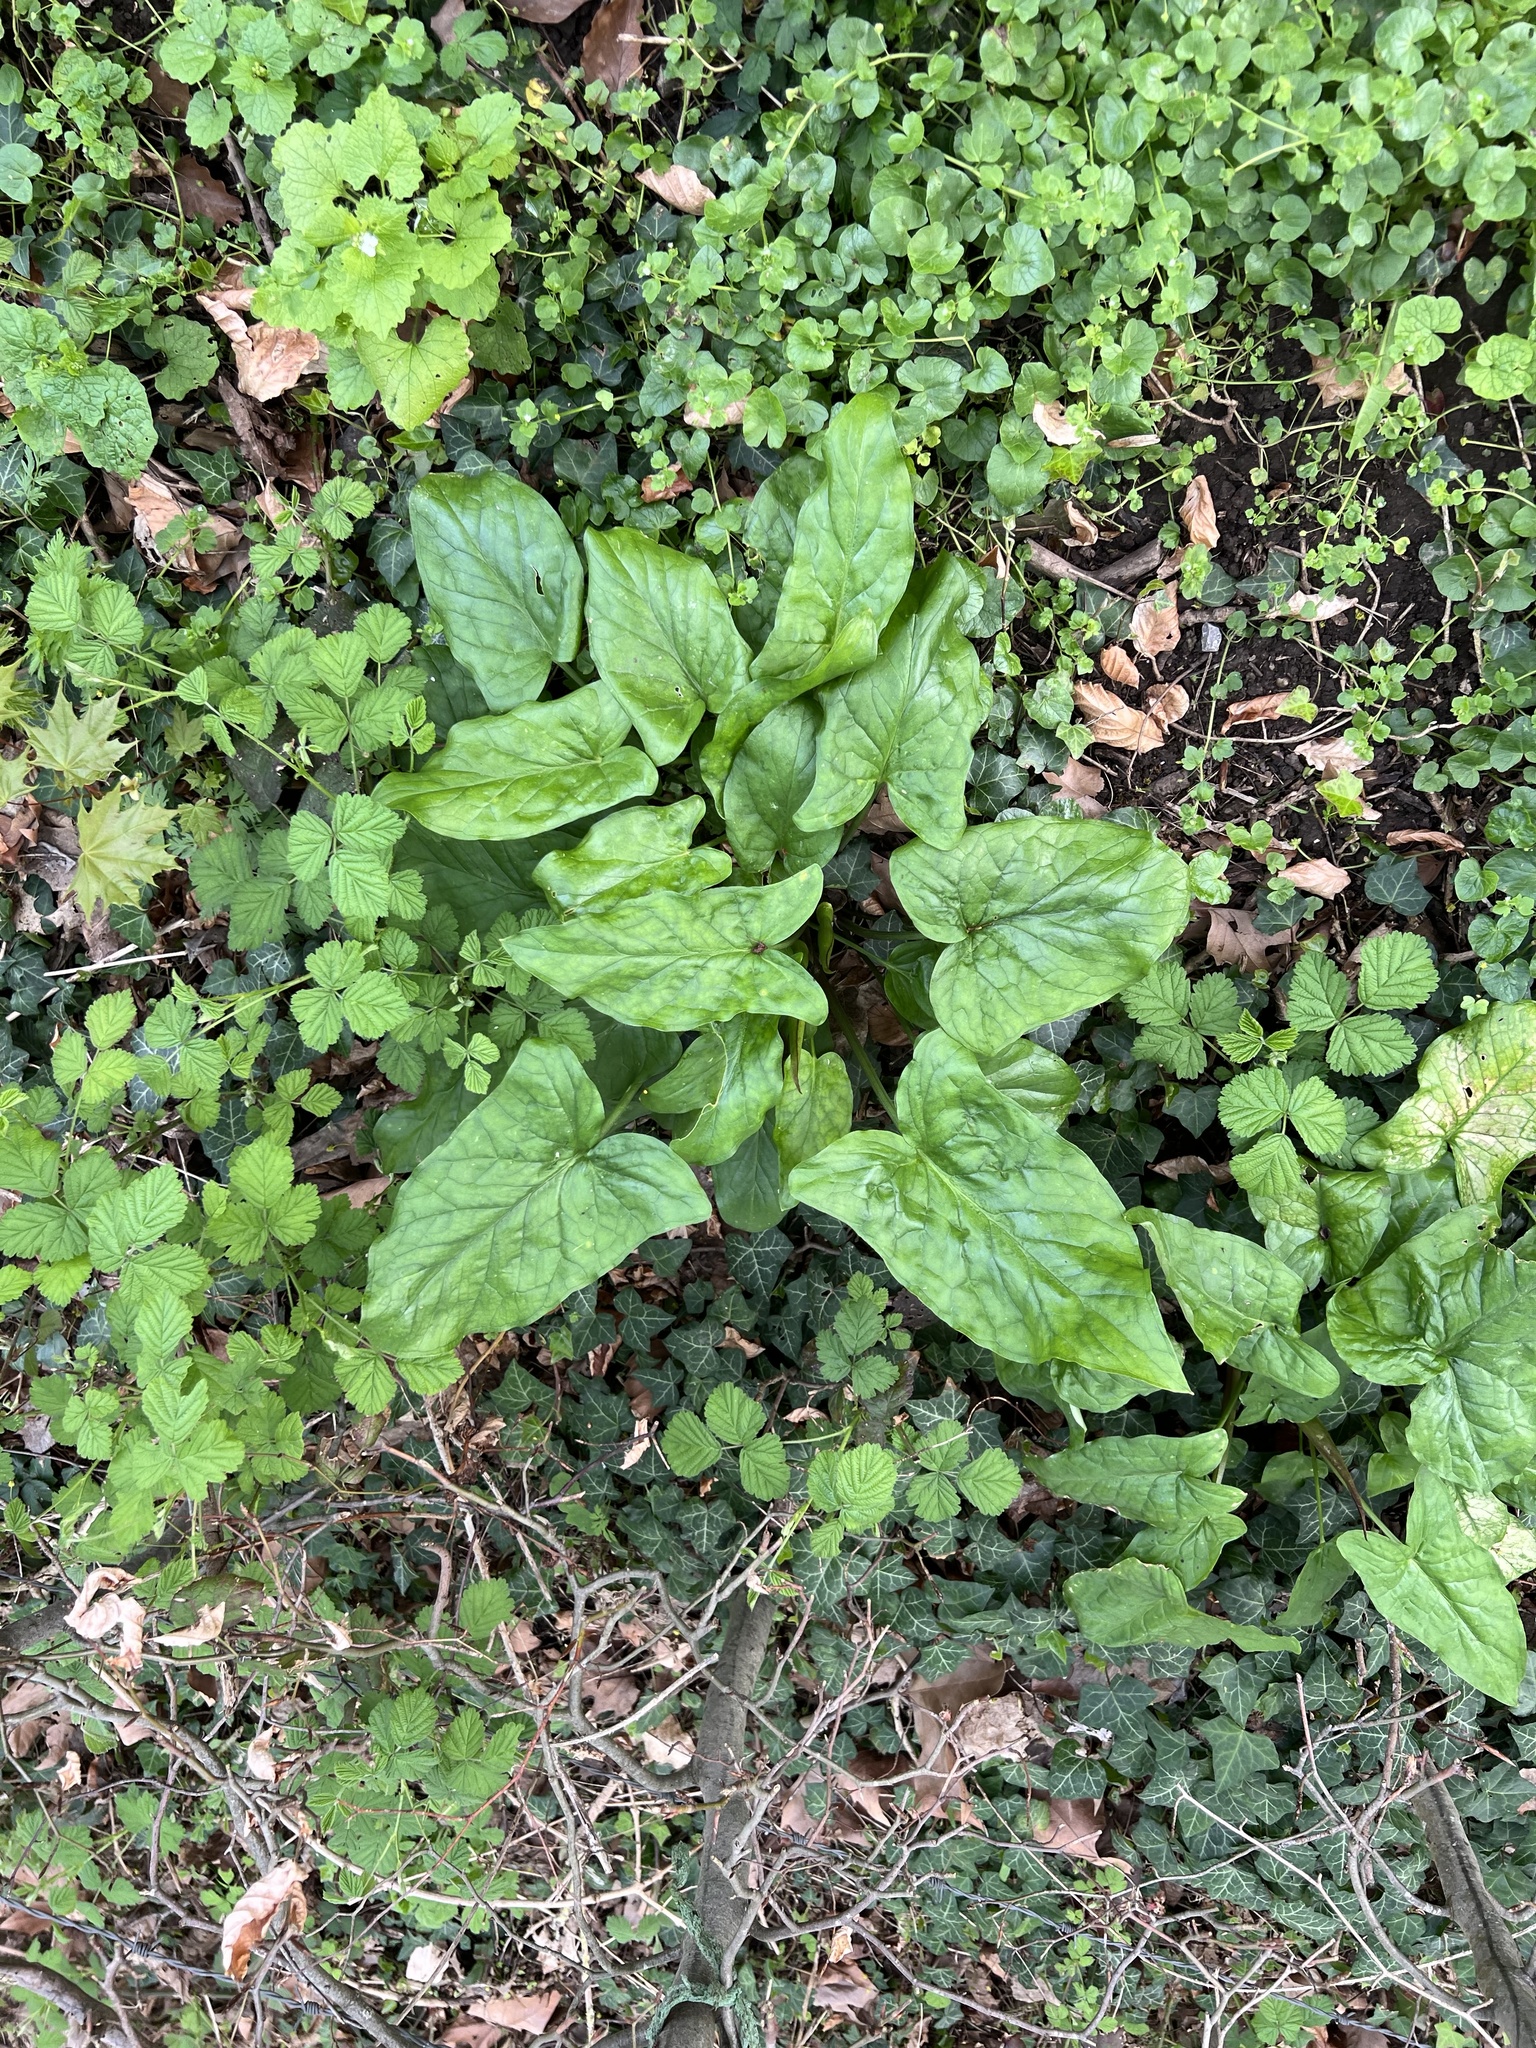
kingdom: Plantae
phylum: Tracheophyta
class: Liliopsida
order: Alismatales
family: Araceae
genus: Arum
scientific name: Arum maculatum
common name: Lords-and-ladies
